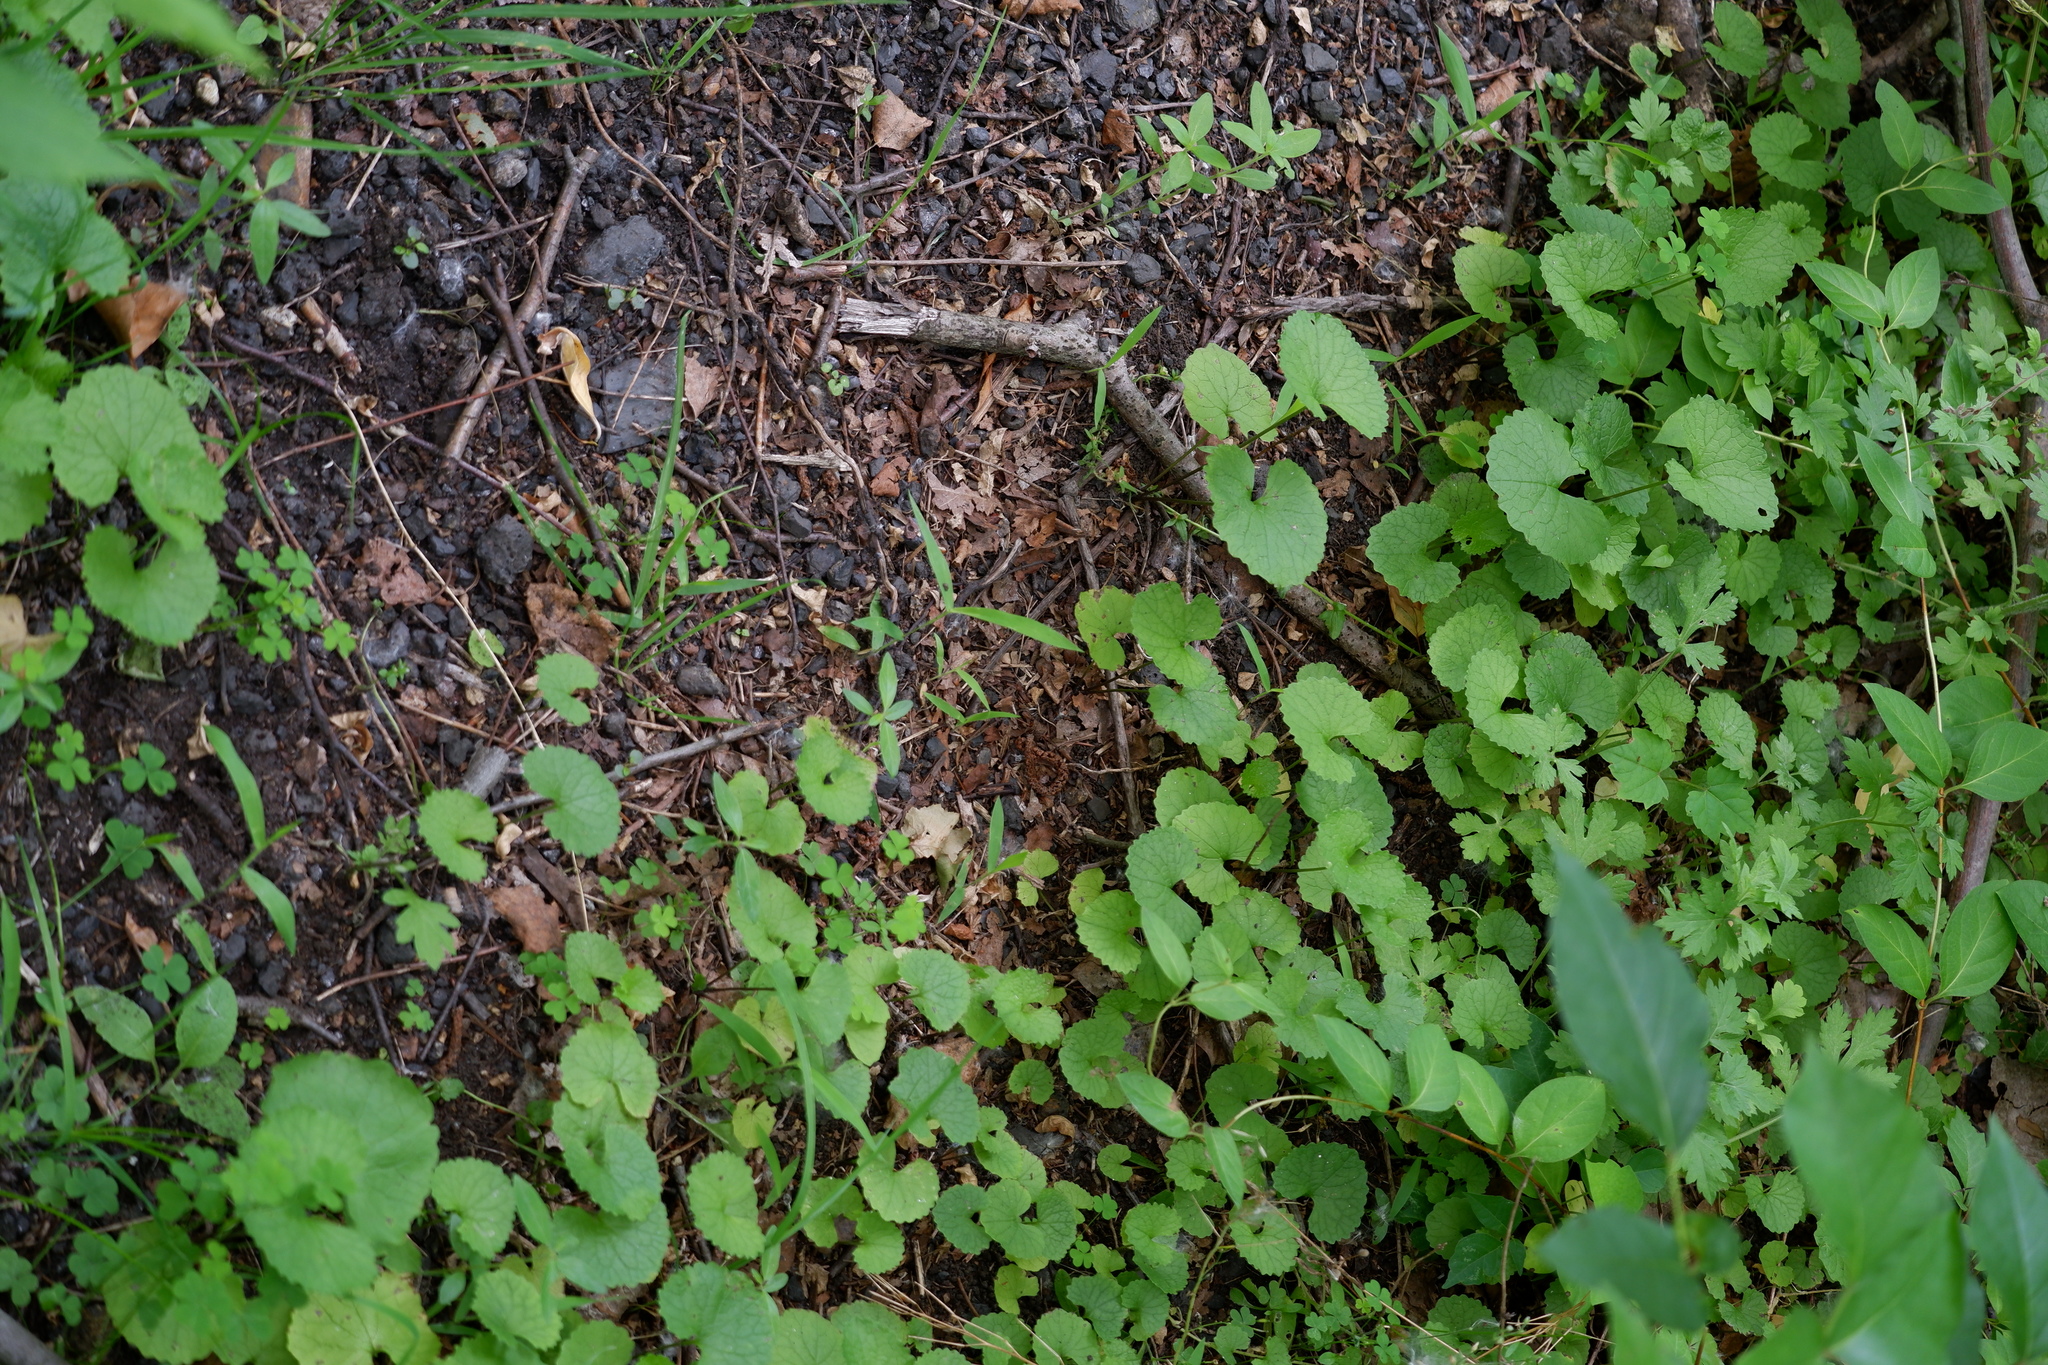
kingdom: Plantae
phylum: Tracheophyta
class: Magnoliopsida
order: Brassicales
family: Brassicaceae
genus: Alliaria
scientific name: Alliaria petiolata
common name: Garlic mustard
